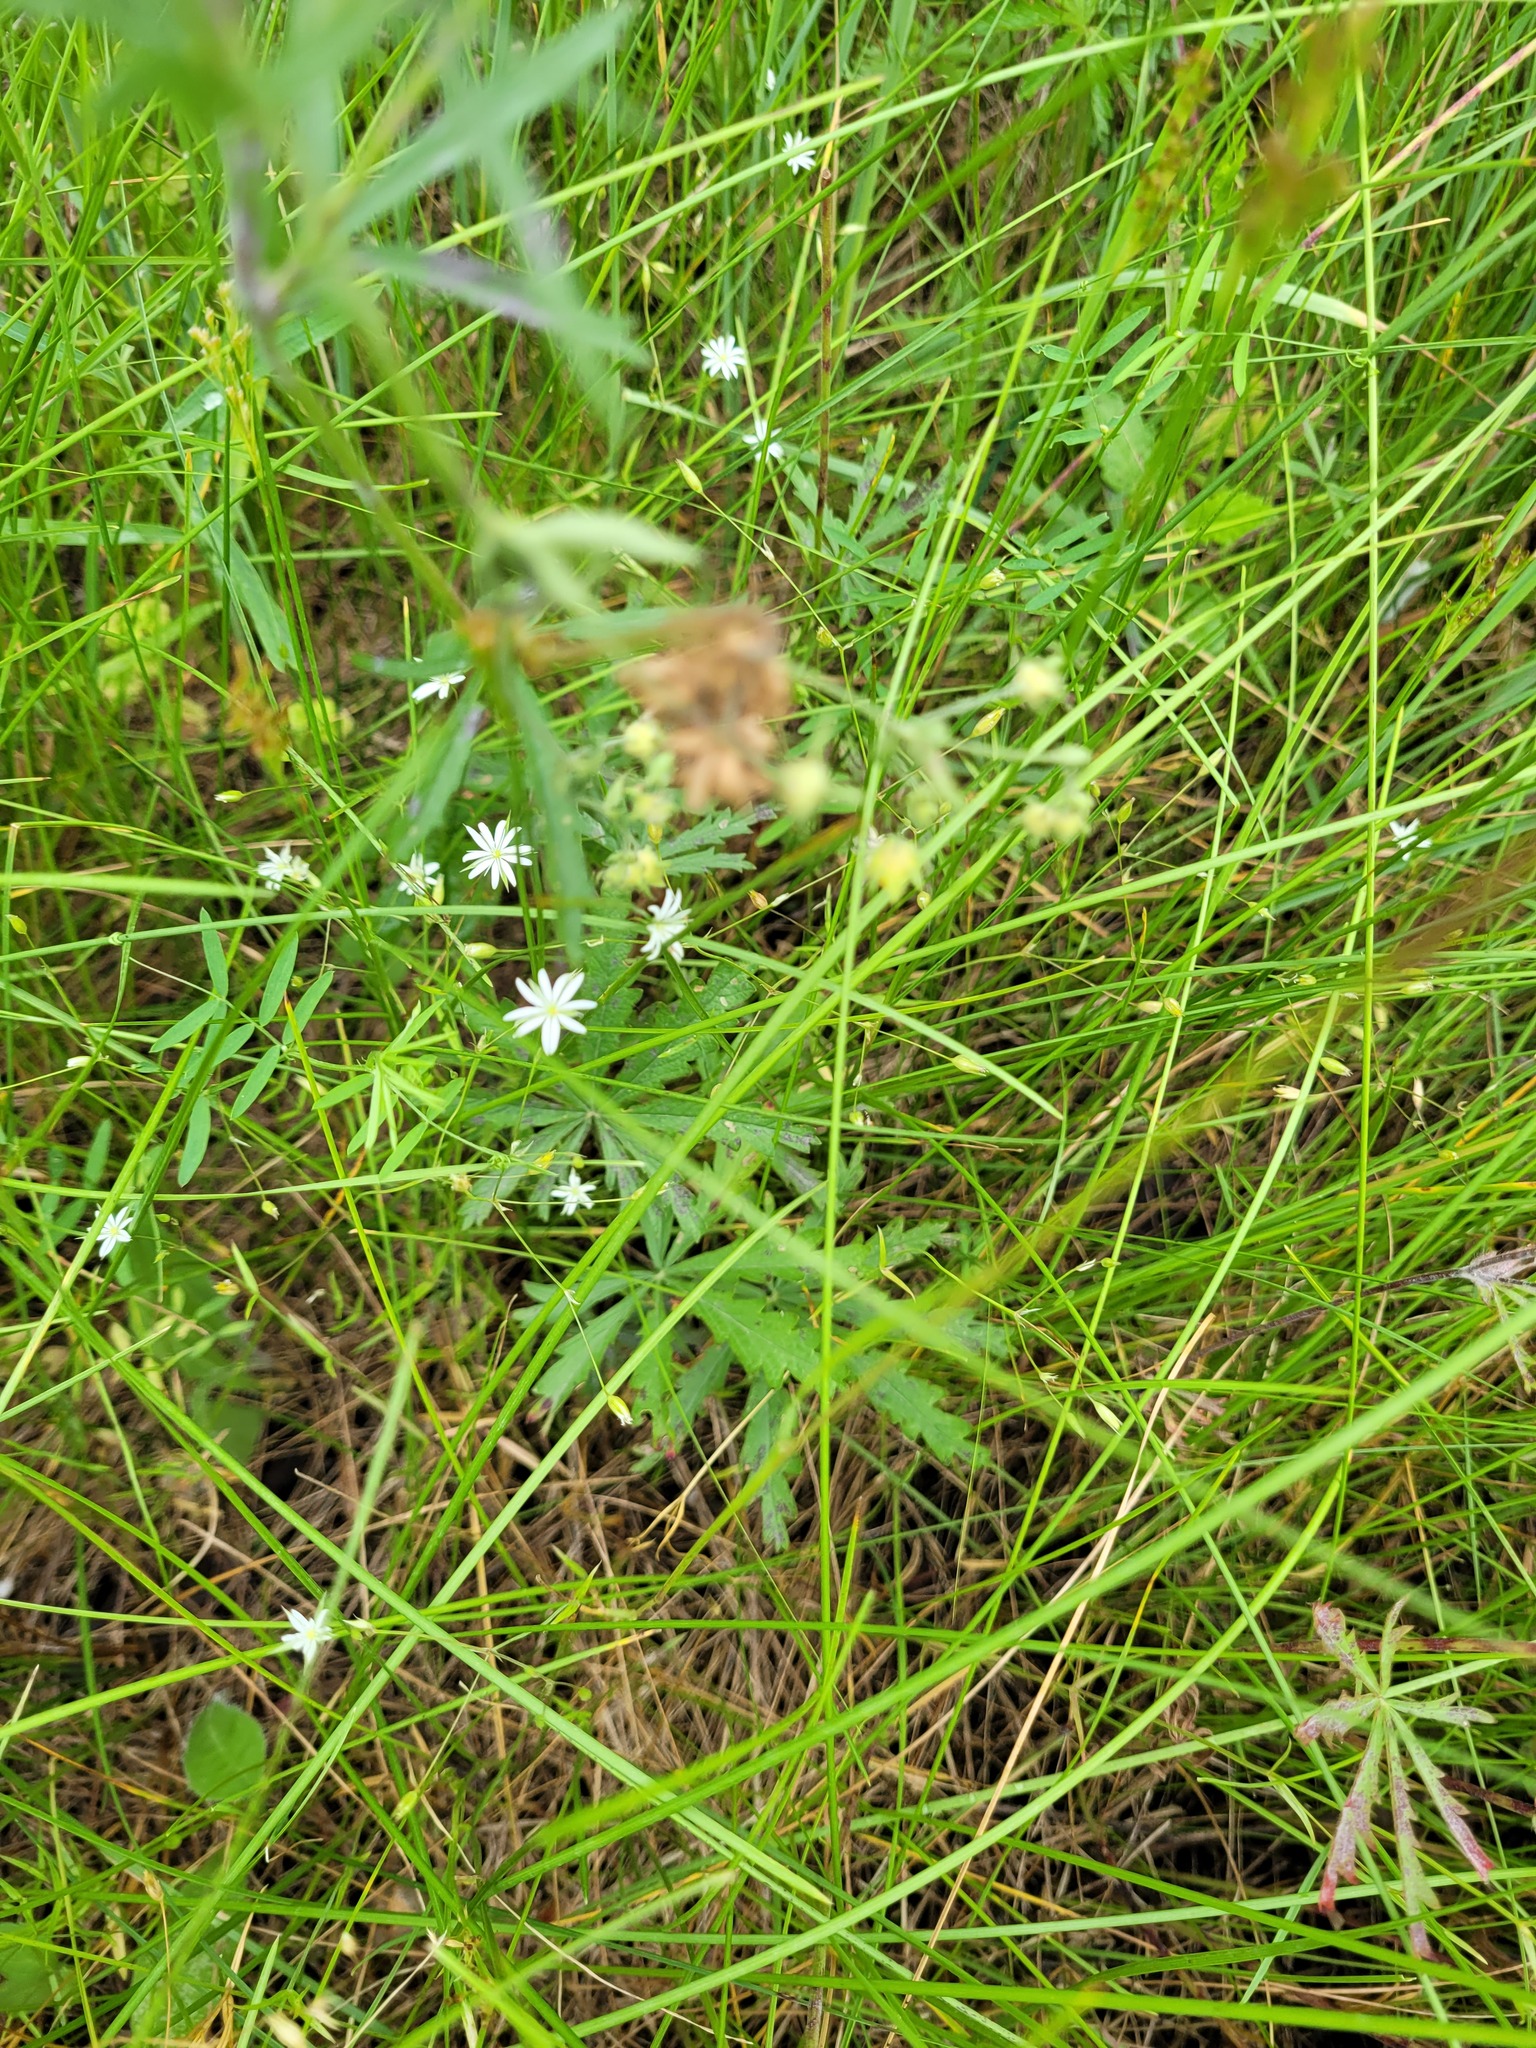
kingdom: Plantae
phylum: Tracheophyta
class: Magnoliopsida
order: Rosales
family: Rosaceae
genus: Potentilla
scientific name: Potentilla longipes
